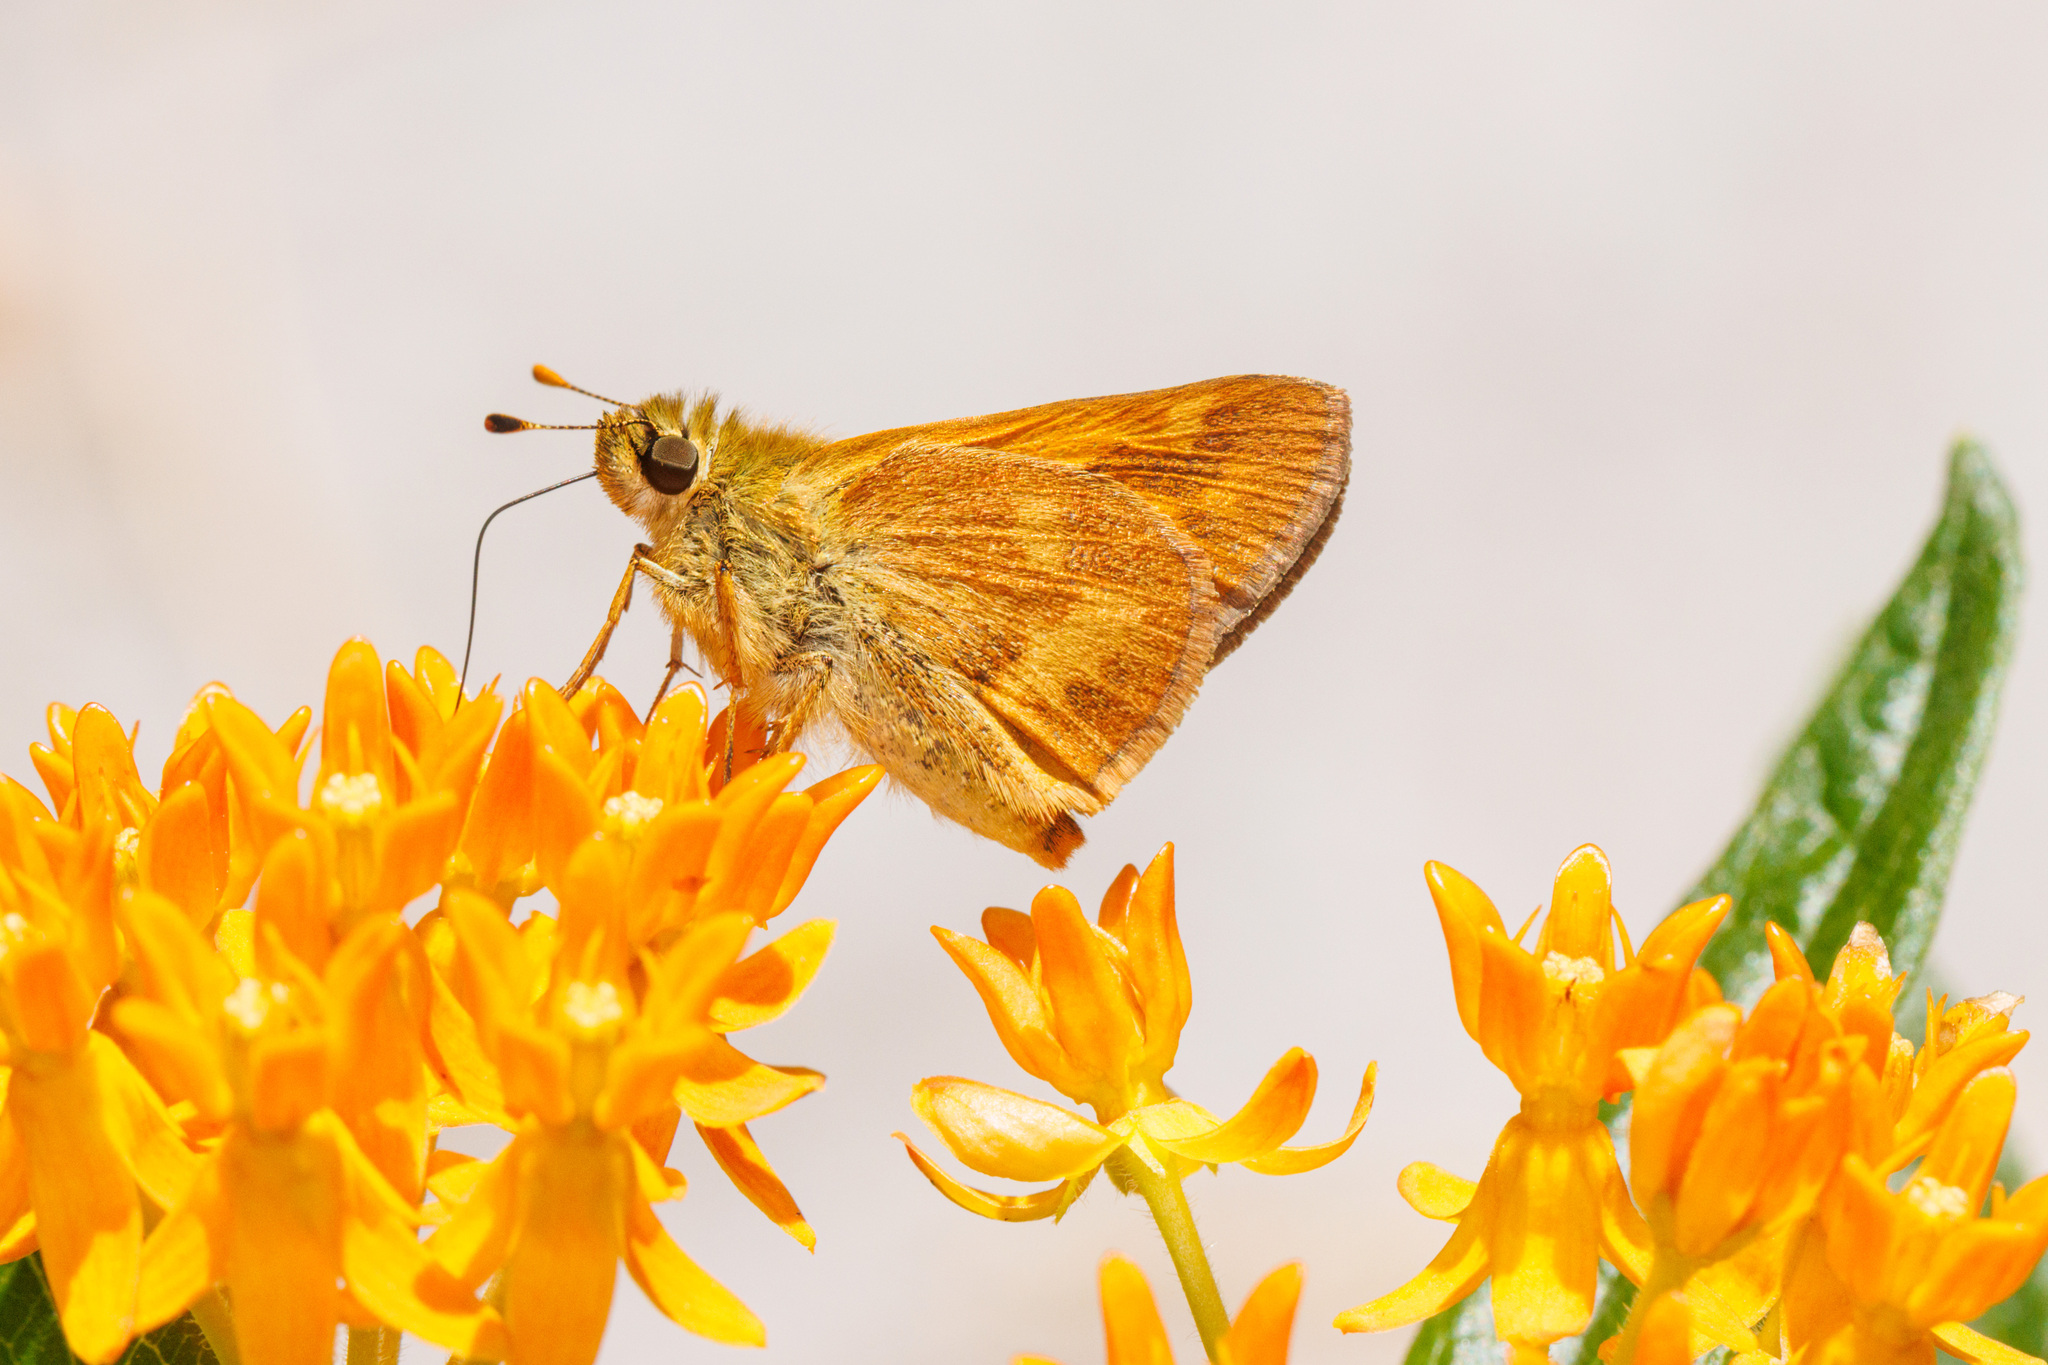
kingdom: Animalia
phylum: Arthropoda
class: Insecta
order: Lepidoptera
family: Hesperiidae
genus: Ochlodes
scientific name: Ochlodes sylvanoides
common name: Woodland skipper
